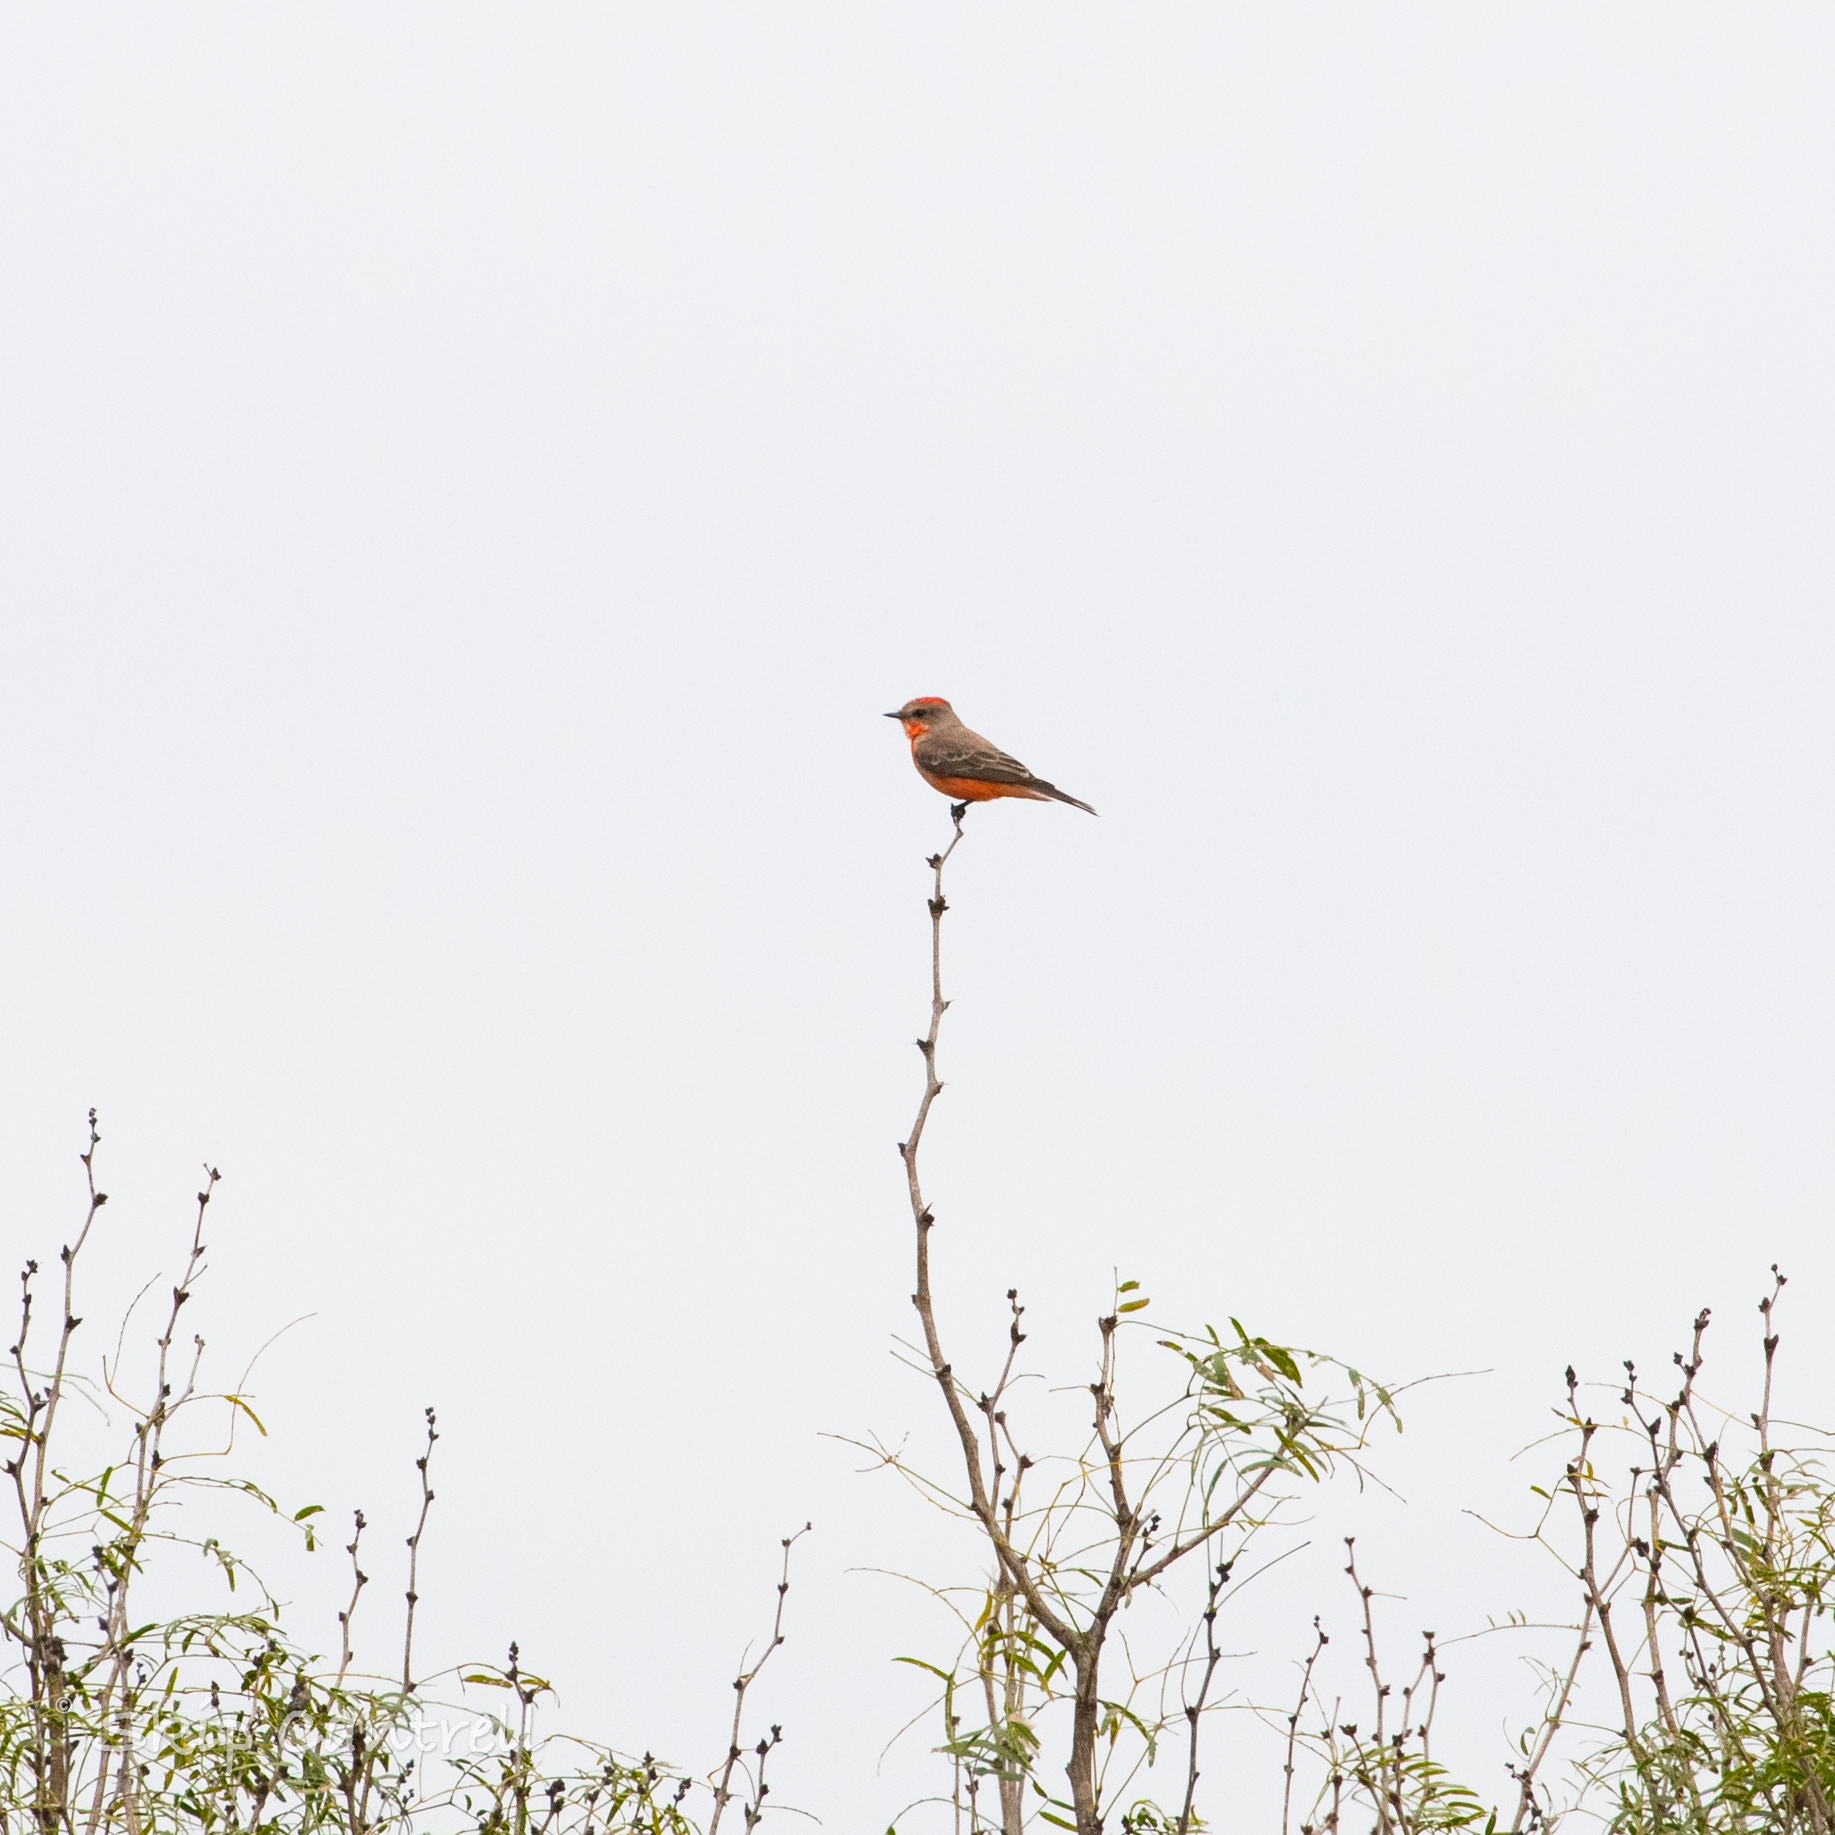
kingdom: Animalia
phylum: Chordata
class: Aves
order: Passeriformes
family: Tyrannidae
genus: Pyrocephalus
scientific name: Pyrocephalus rubinus
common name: Vermilion flycatcher
